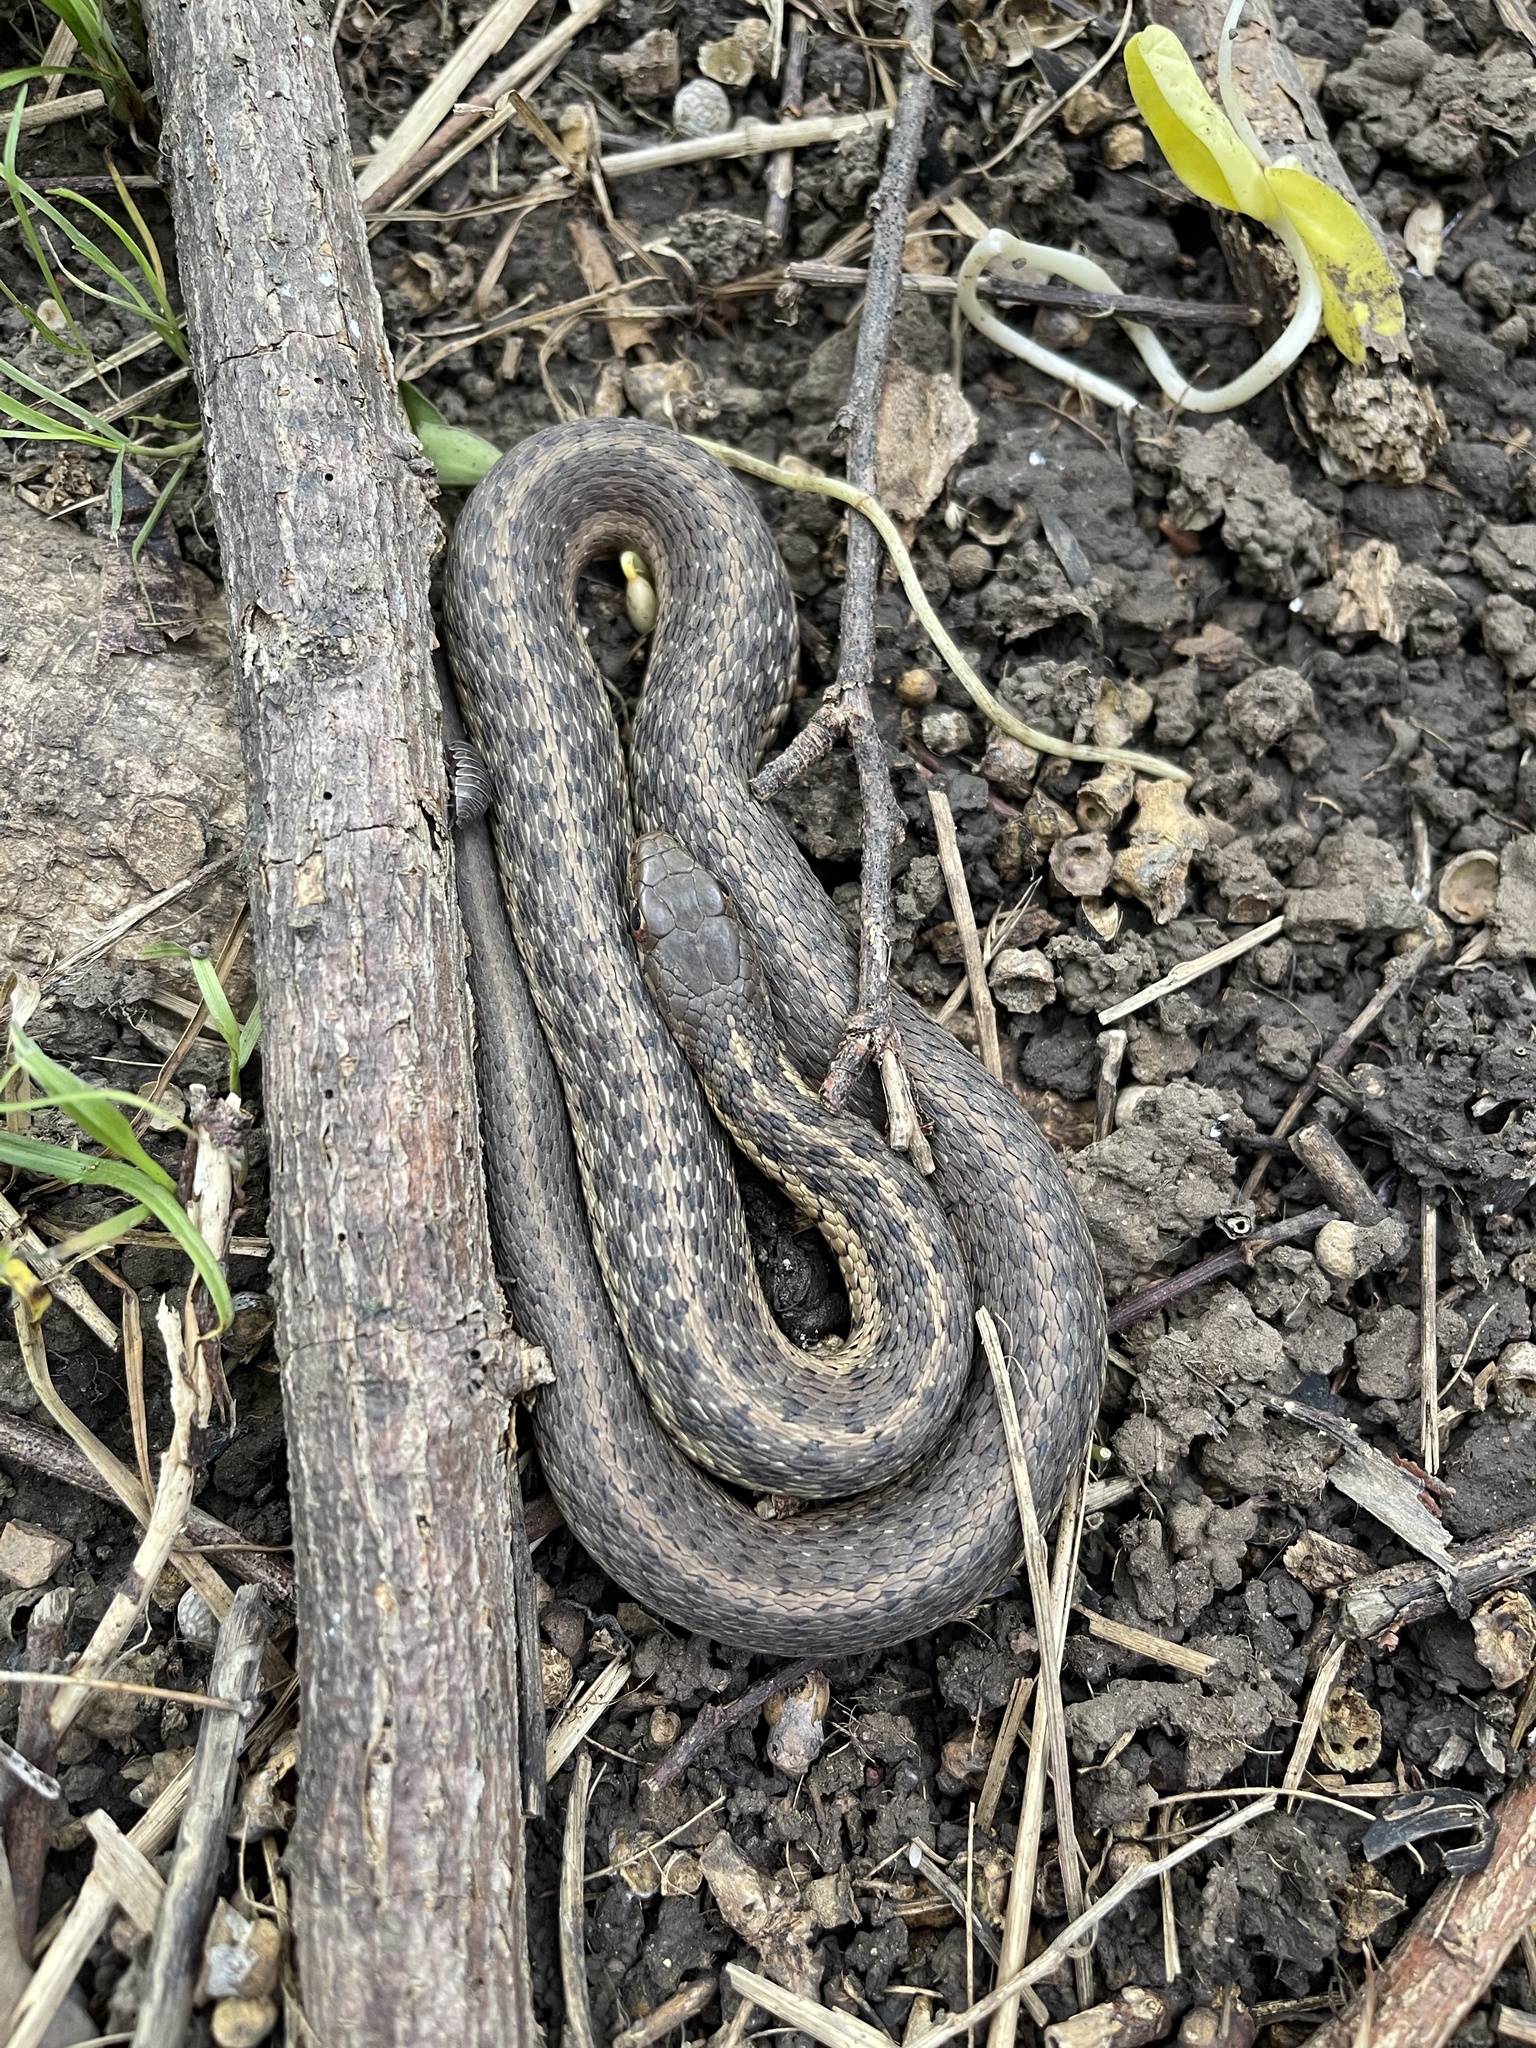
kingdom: Animalia
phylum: Chordata
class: Squamata
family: Colubridae
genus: Thamnophis
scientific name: Thamnophis sirtalis
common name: Common garter snake
